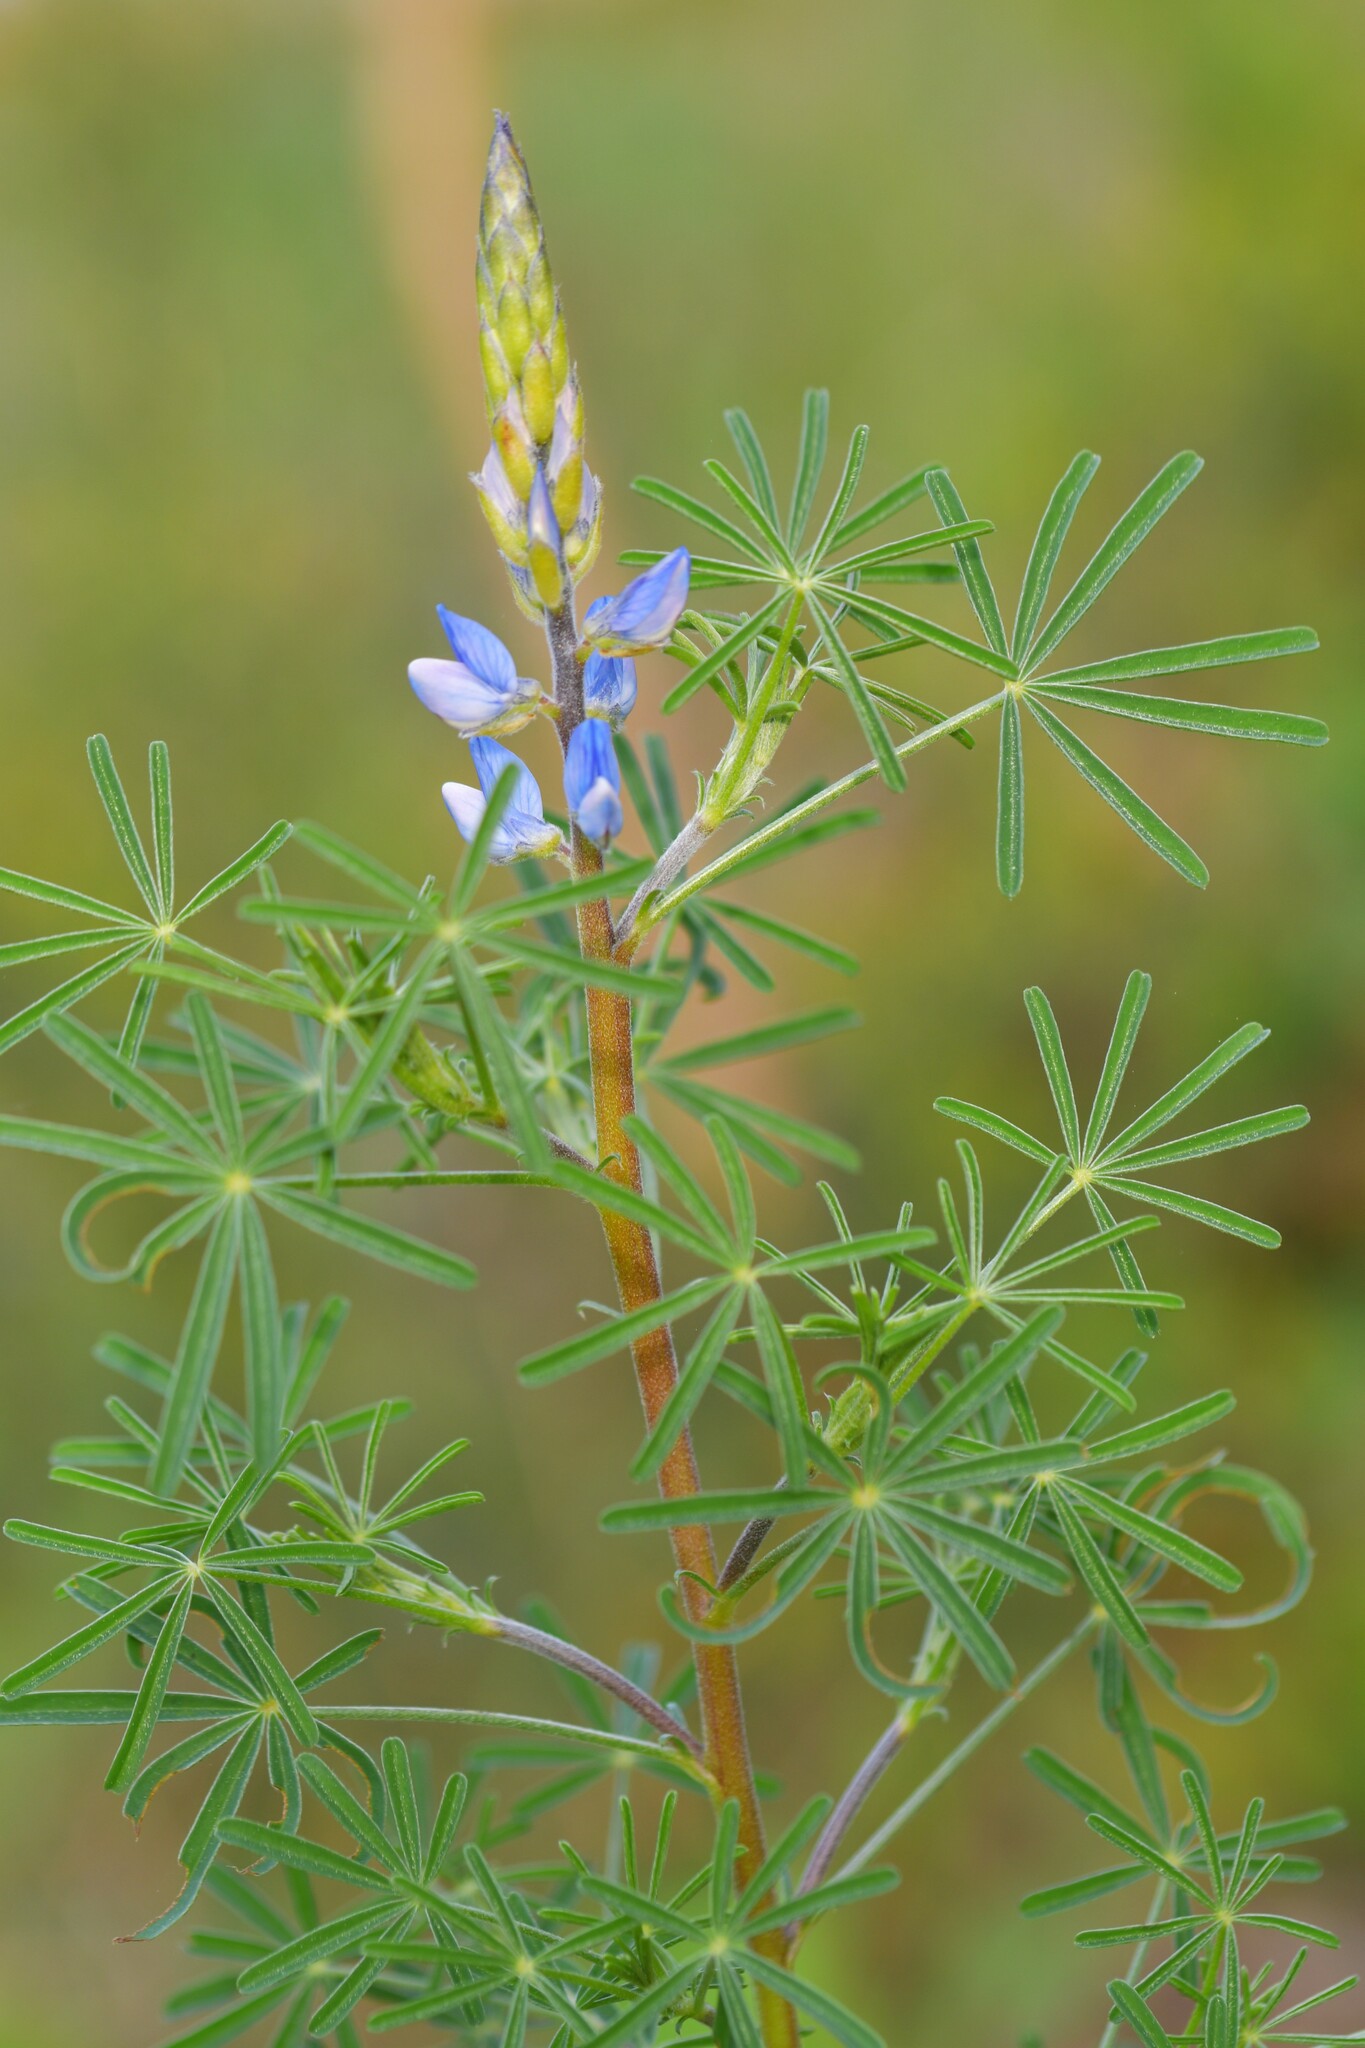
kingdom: Plantae
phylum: Tracheophyta
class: Magnoliopsida
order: Fabales
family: Fabaceae
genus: Lupinus
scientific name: Lupinus angustifolius
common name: Narrow-leaved lupin
